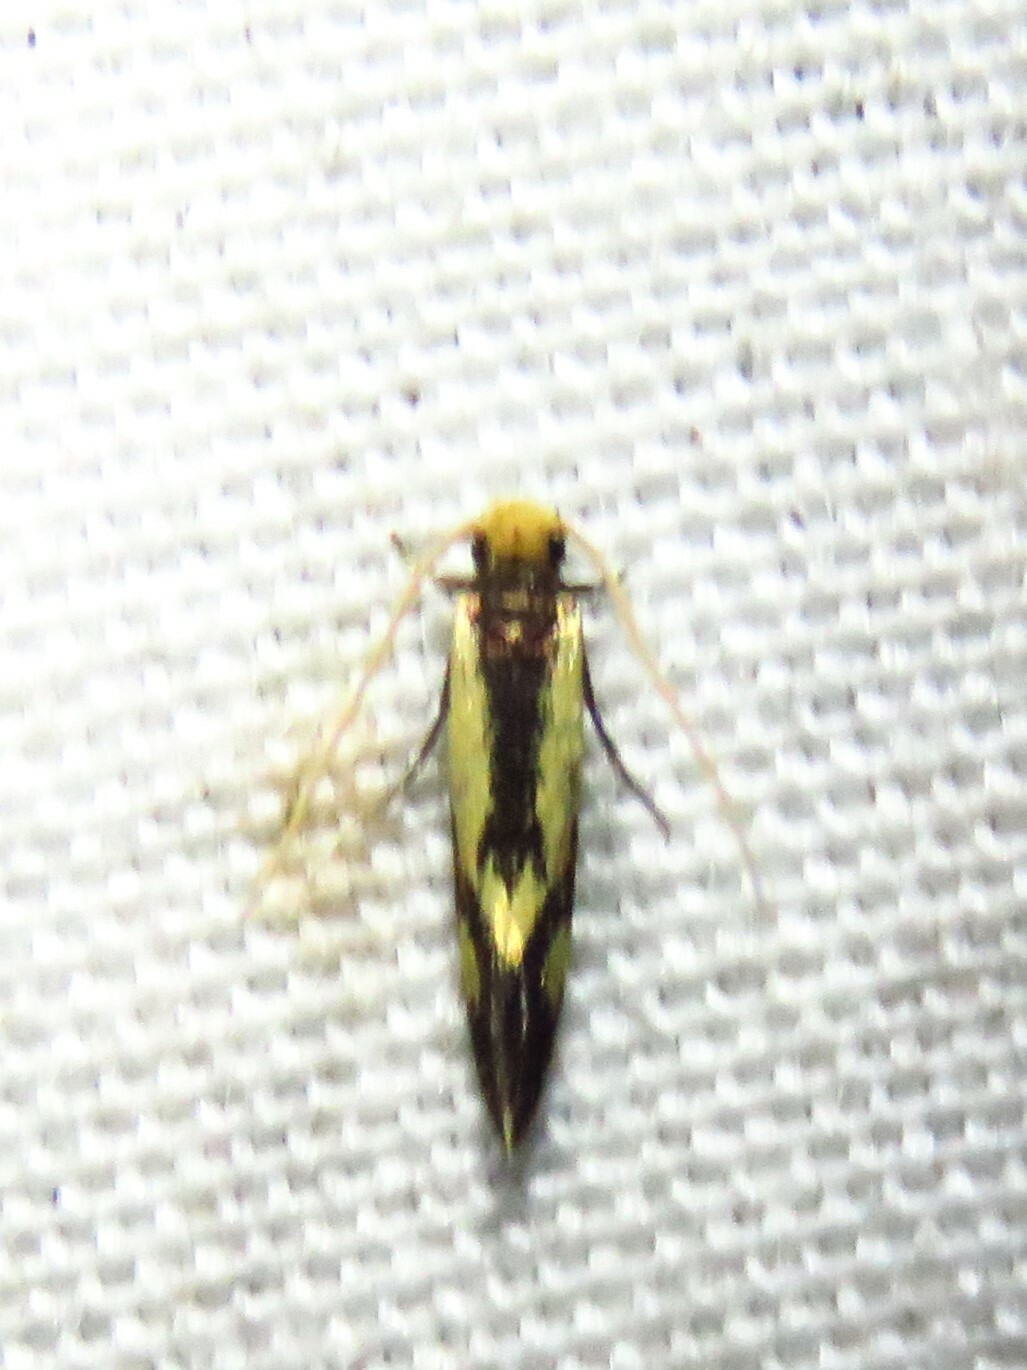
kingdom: Animalia
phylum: Arthropoda
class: Insecta
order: Lepidoptera
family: Meessiidae
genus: Isocorypha
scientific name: Isocorypha mediostriatella
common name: Old gold isocorypha moth
